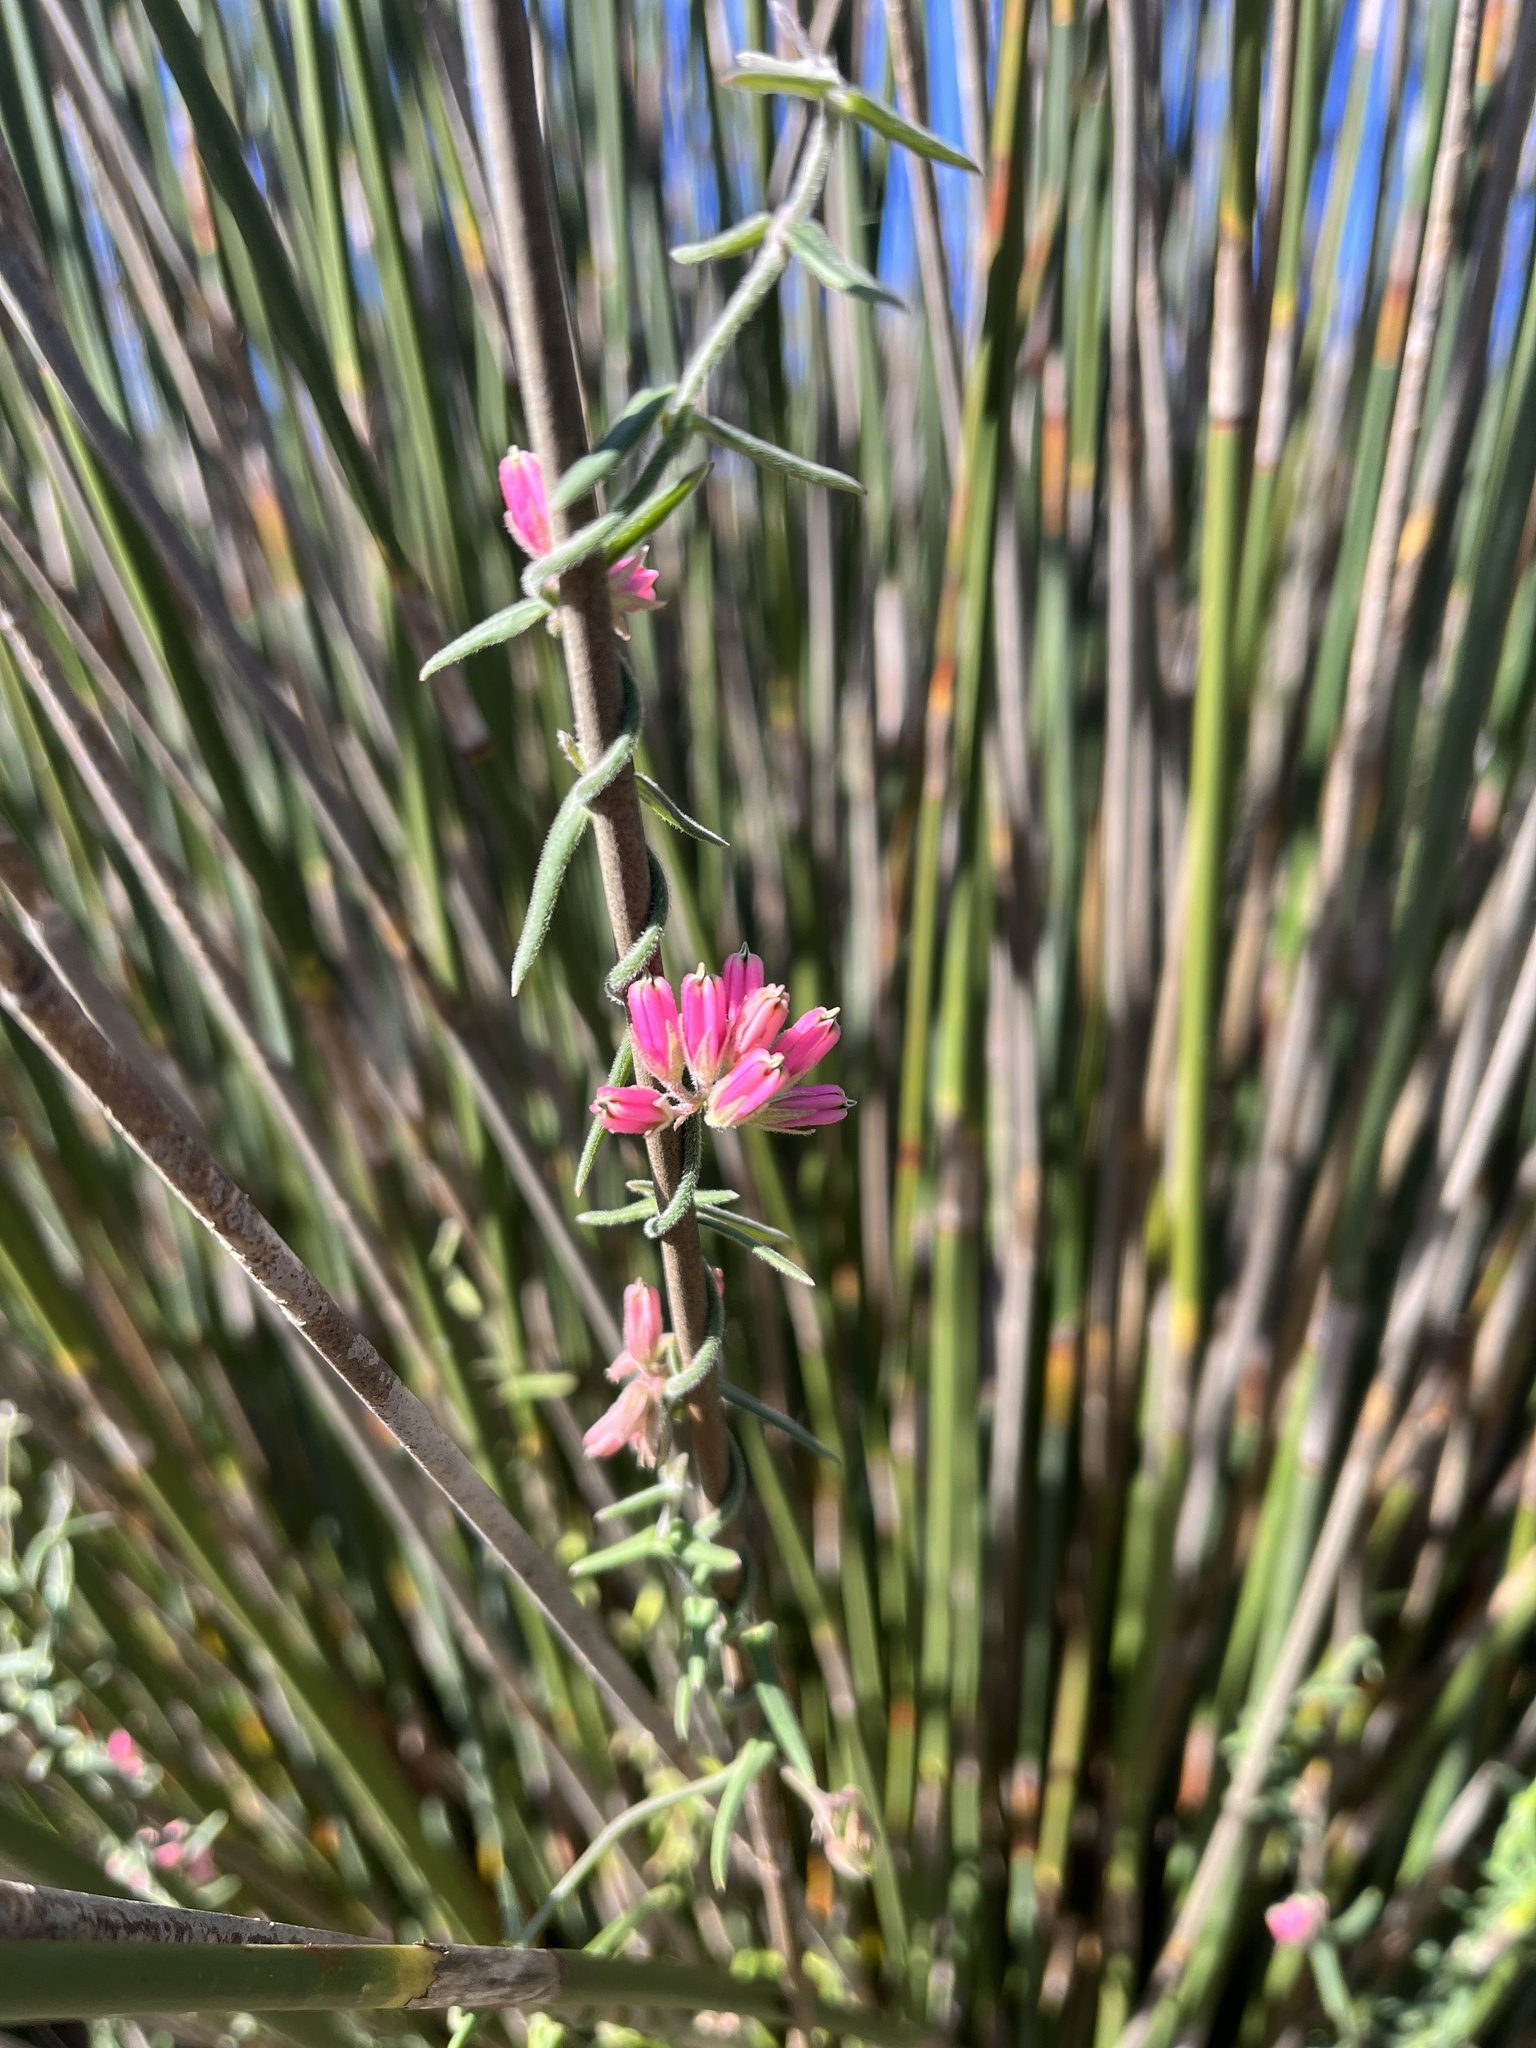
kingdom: Plantae
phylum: Tracheophyta
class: Magnoliopsida
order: Gentianales
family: Apocynaceae
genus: Microloma
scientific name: Microloma sagittatum
